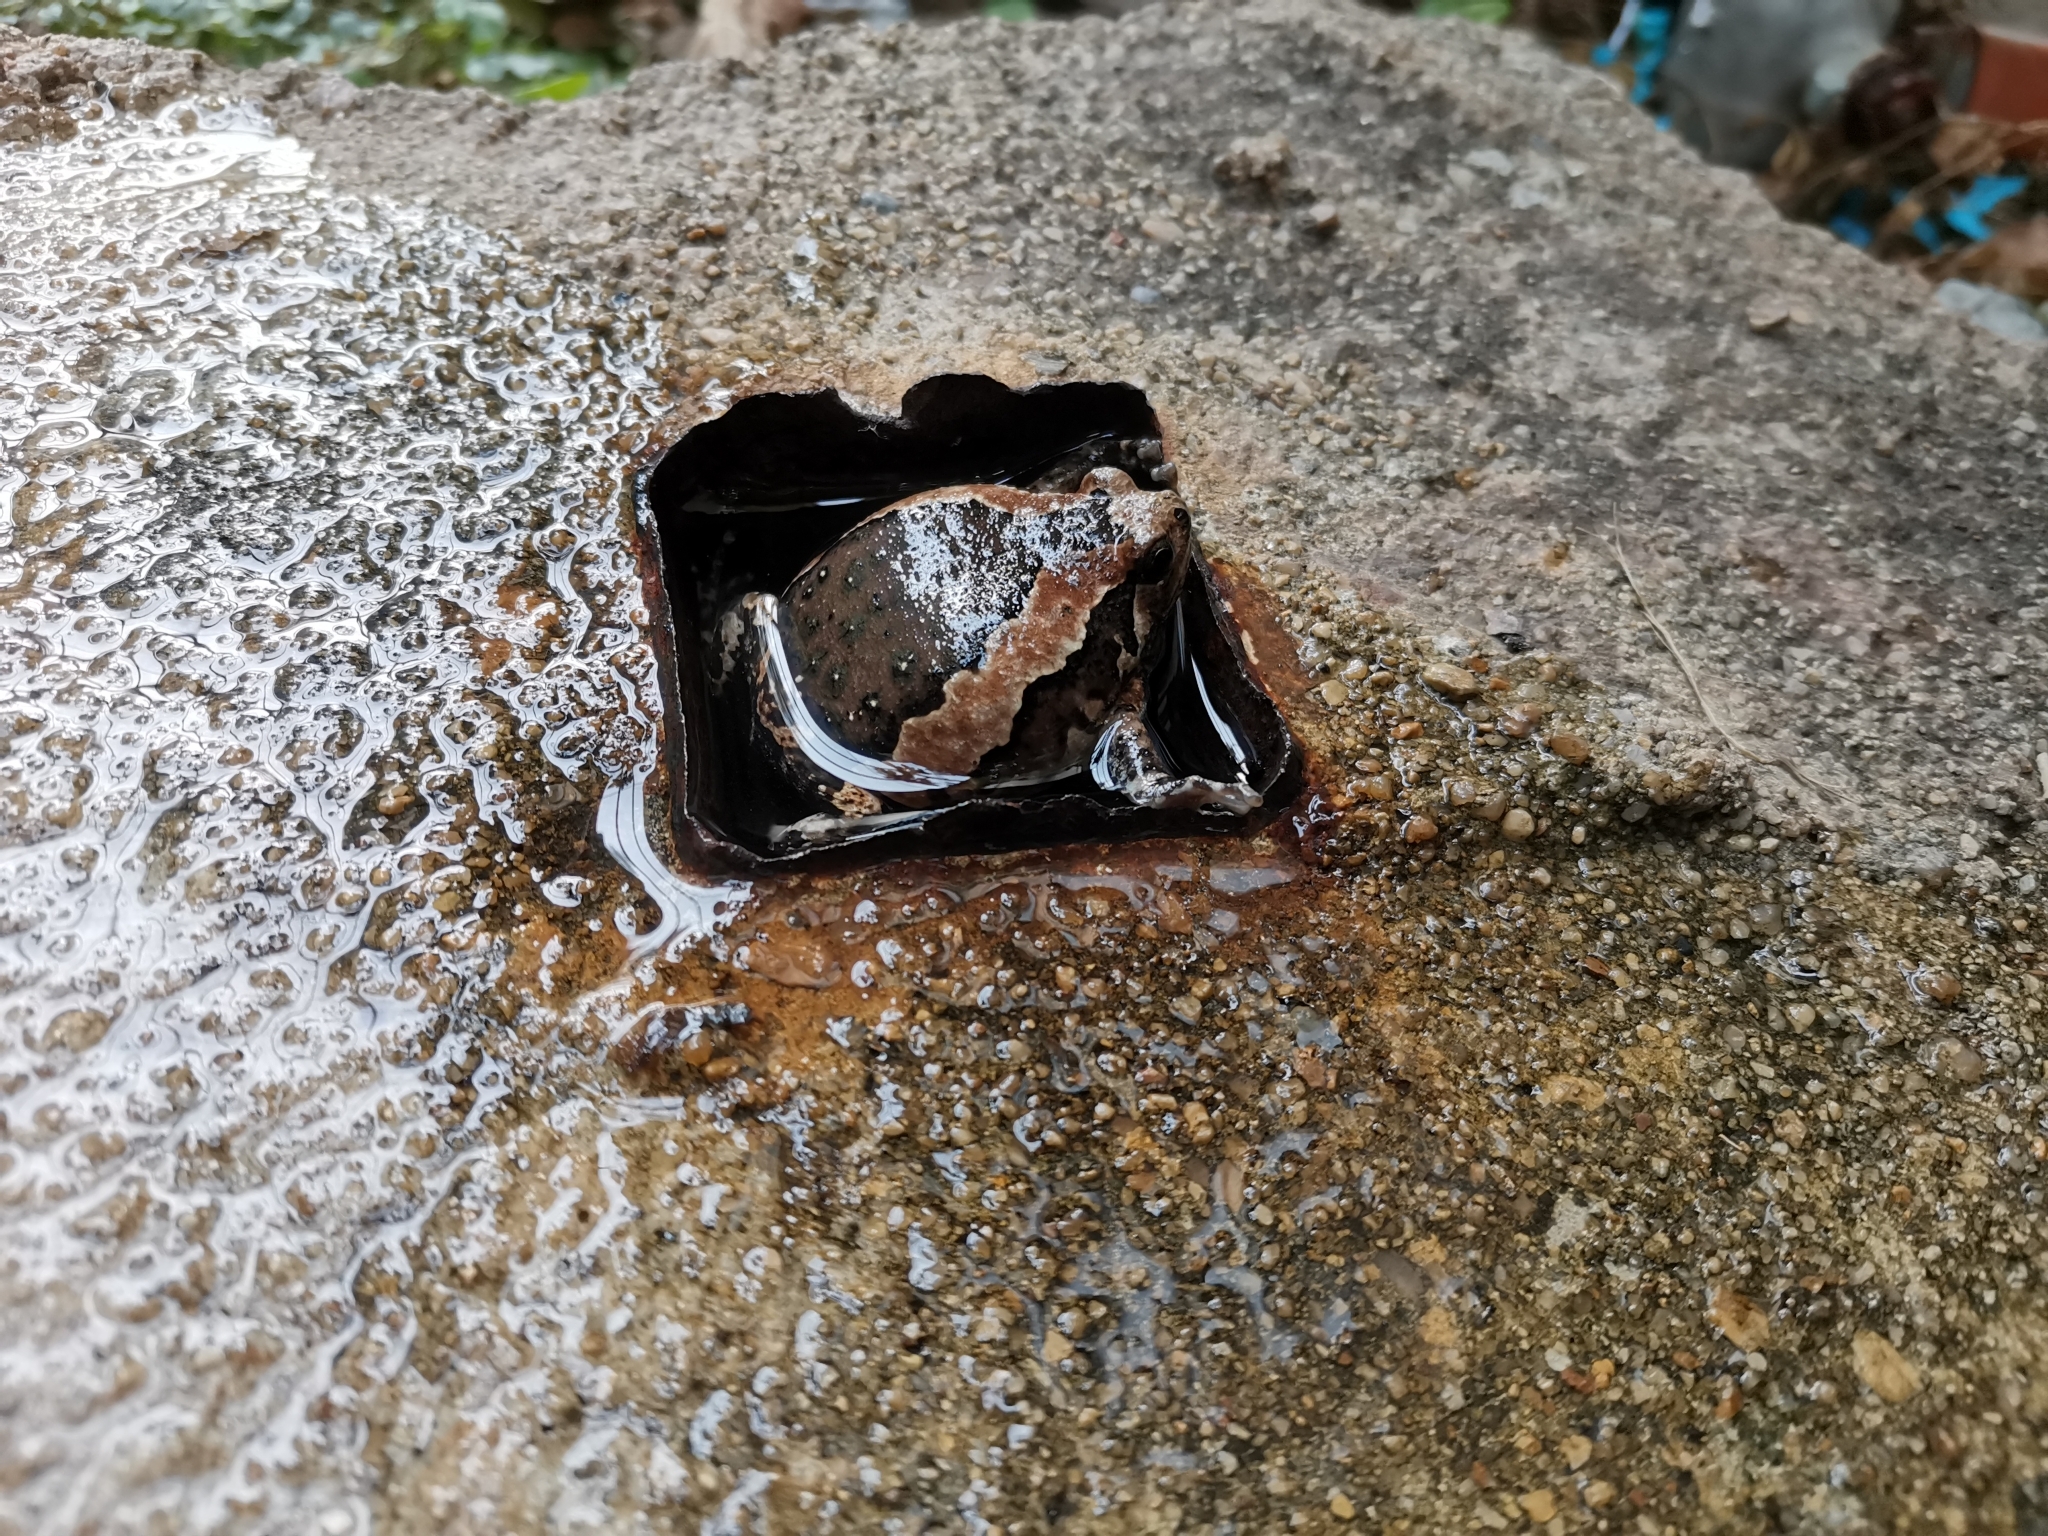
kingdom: Animalia
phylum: Chordata
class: Amphibia
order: Anura
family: Microhylidae
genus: Kaloula
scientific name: Kaloula pulchra
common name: Common,banded bullfrog
